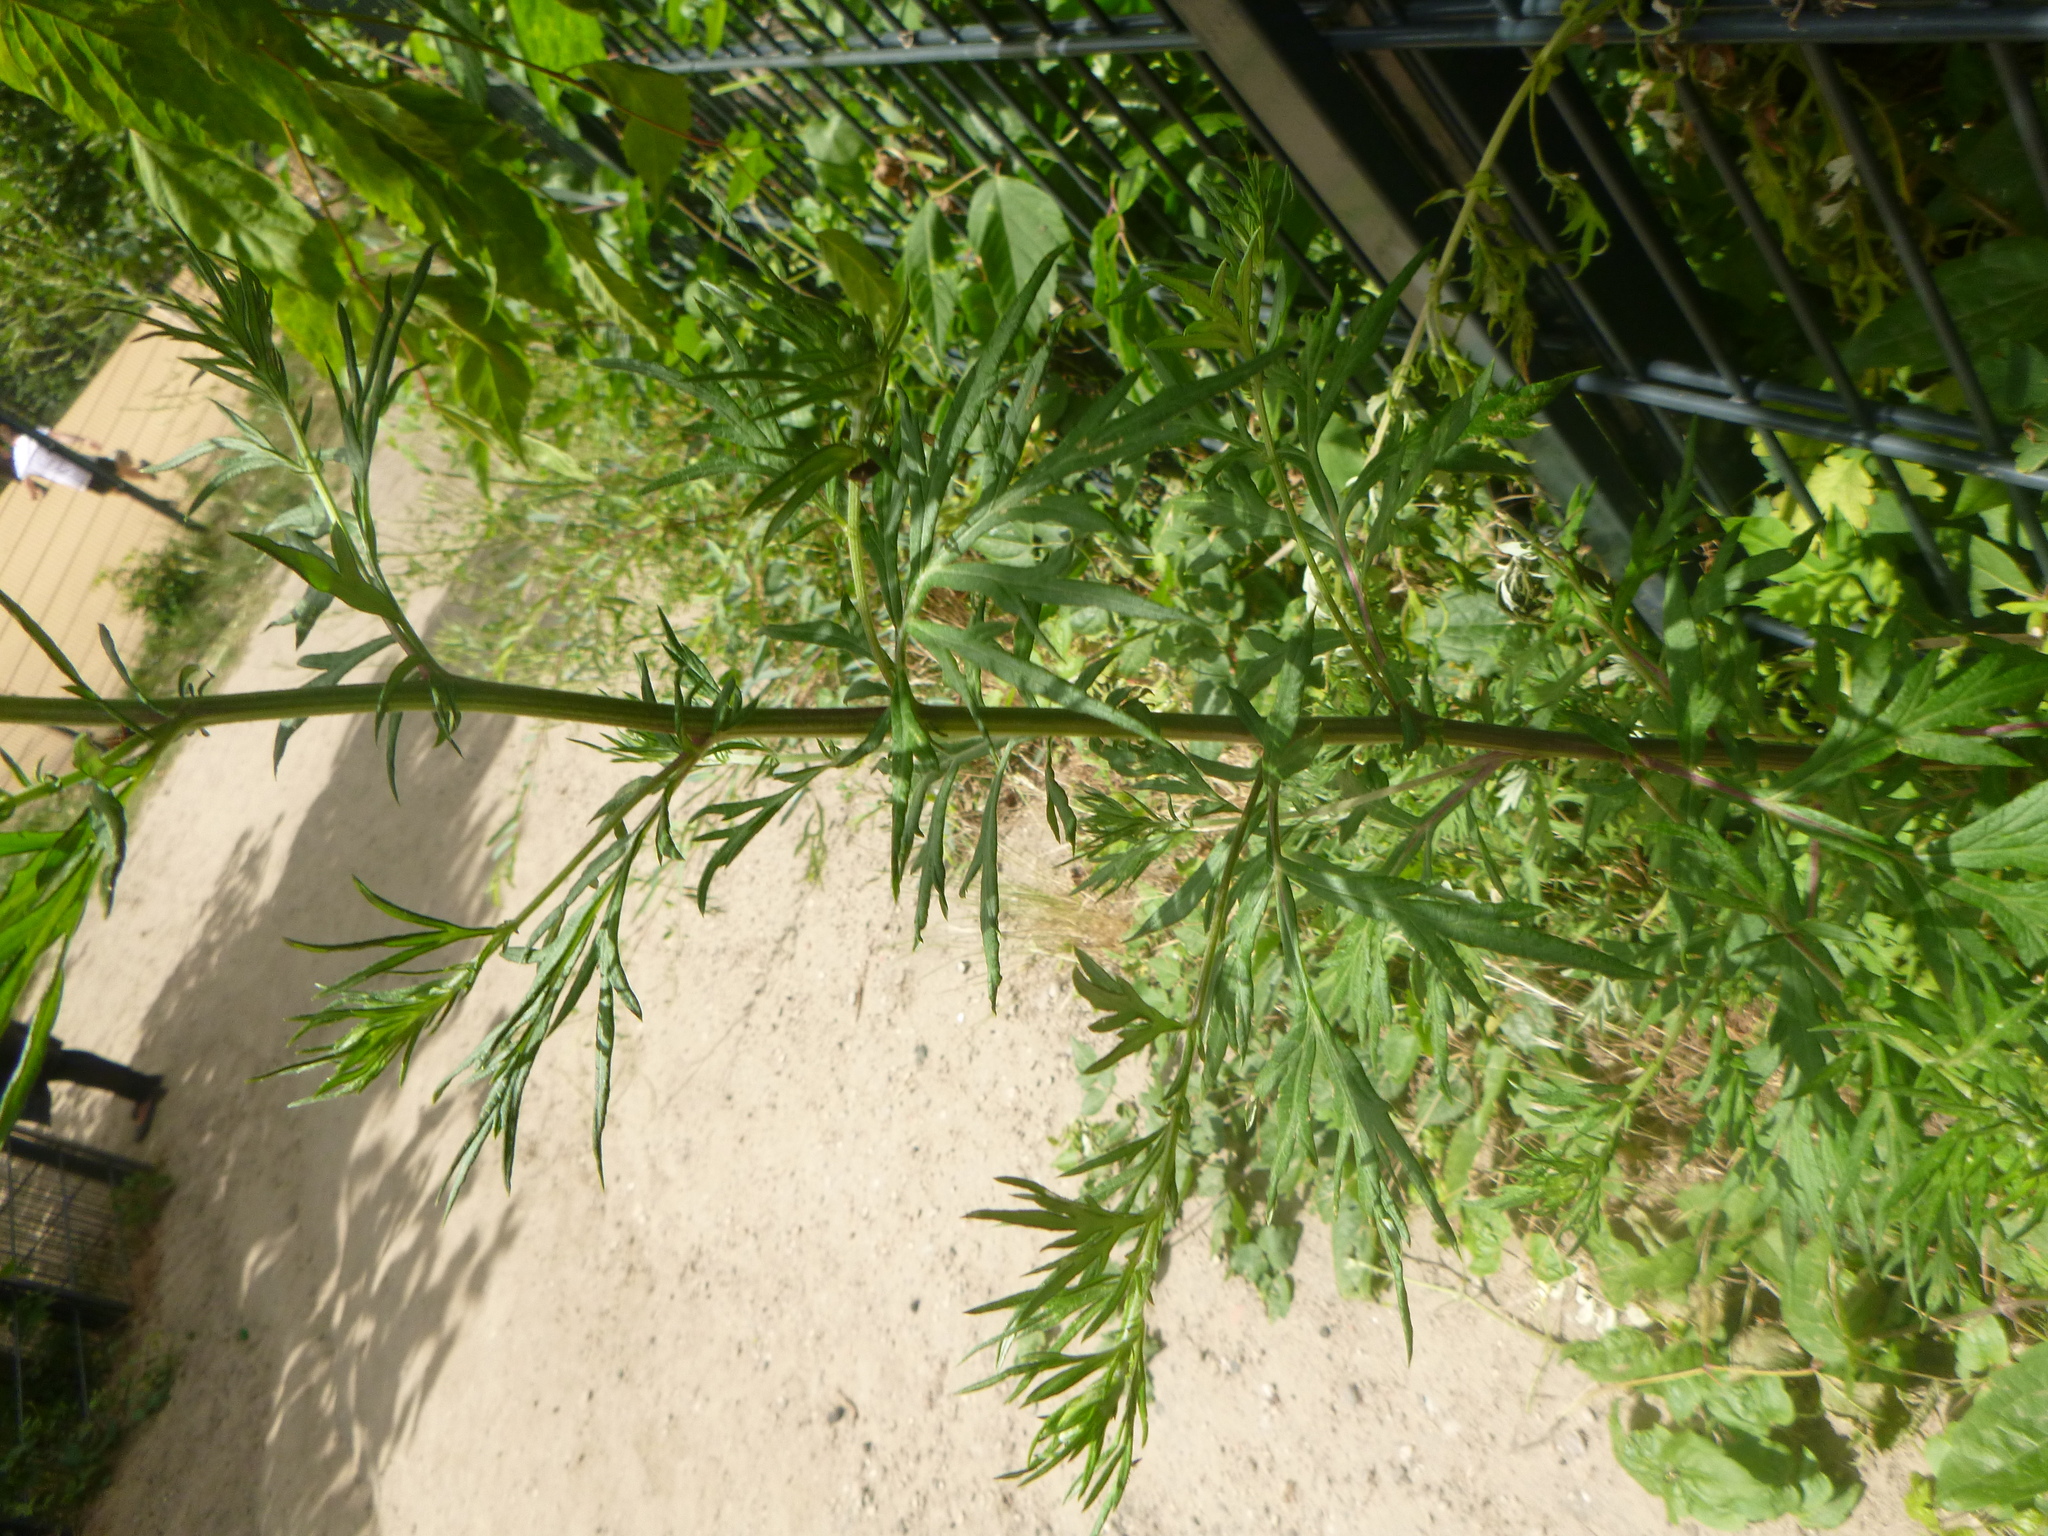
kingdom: Plantae
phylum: Tracheophyta
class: Magnoliopsida
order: Asterales
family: Asteraceae
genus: Artemisia
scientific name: Artemisia vulgaris
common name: Mugwort
